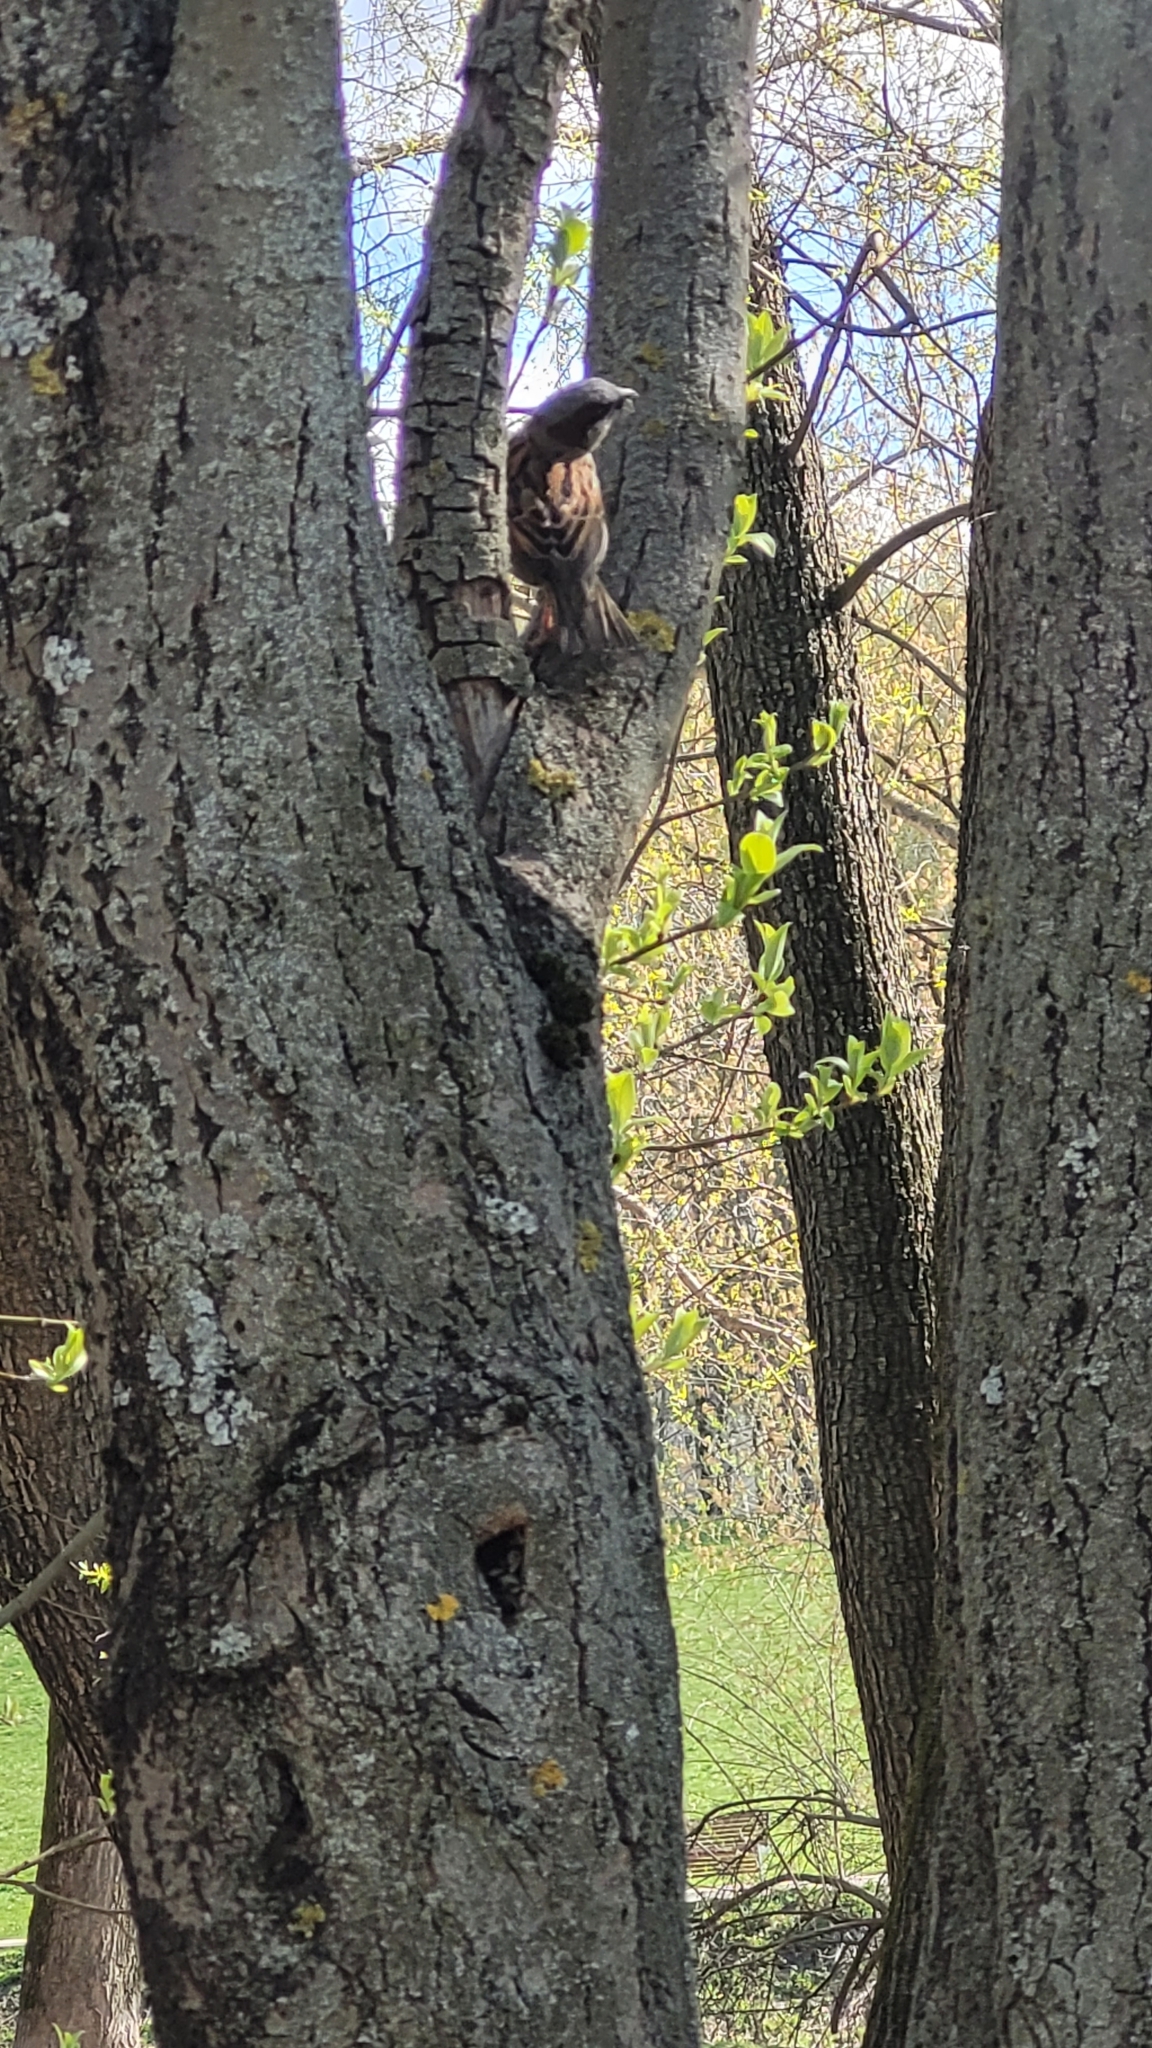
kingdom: Animalia
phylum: Chordata
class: Aves
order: Passeriformes
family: Passeridae
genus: Passer
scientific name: Passer domesticus
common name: House sparrow
